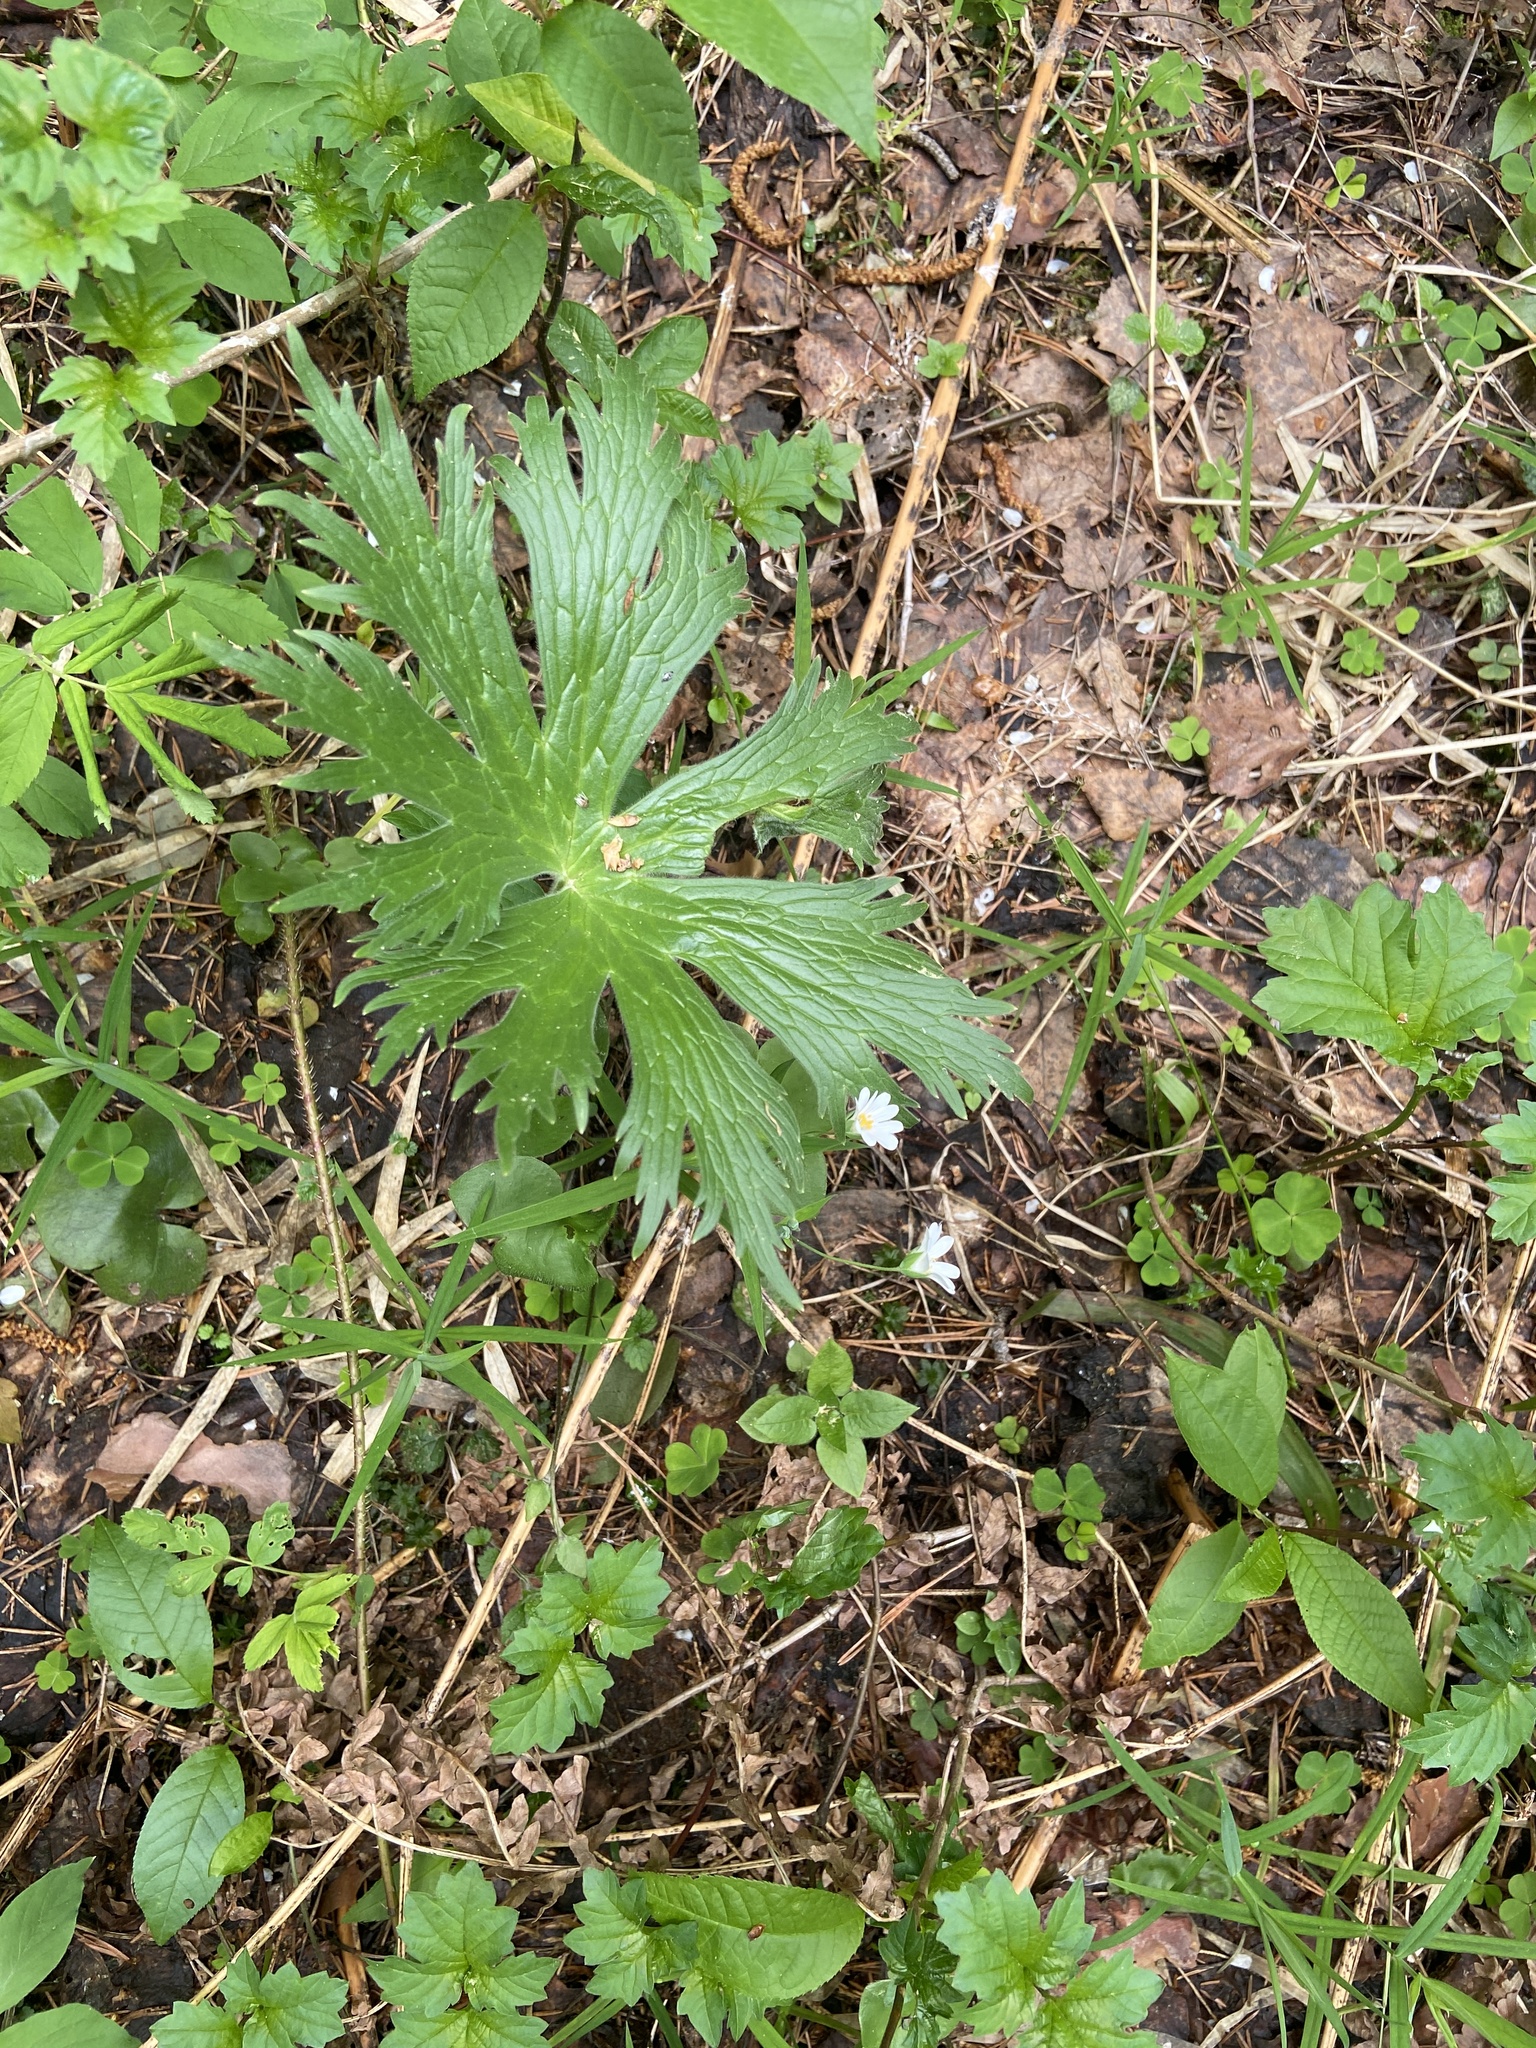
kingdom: Plantae
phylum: Tracheophyta
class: Magnoliopsida
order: Ranunculales
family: Ranunculaceae
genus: Aconitum
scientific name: Aconitum septentrionale
